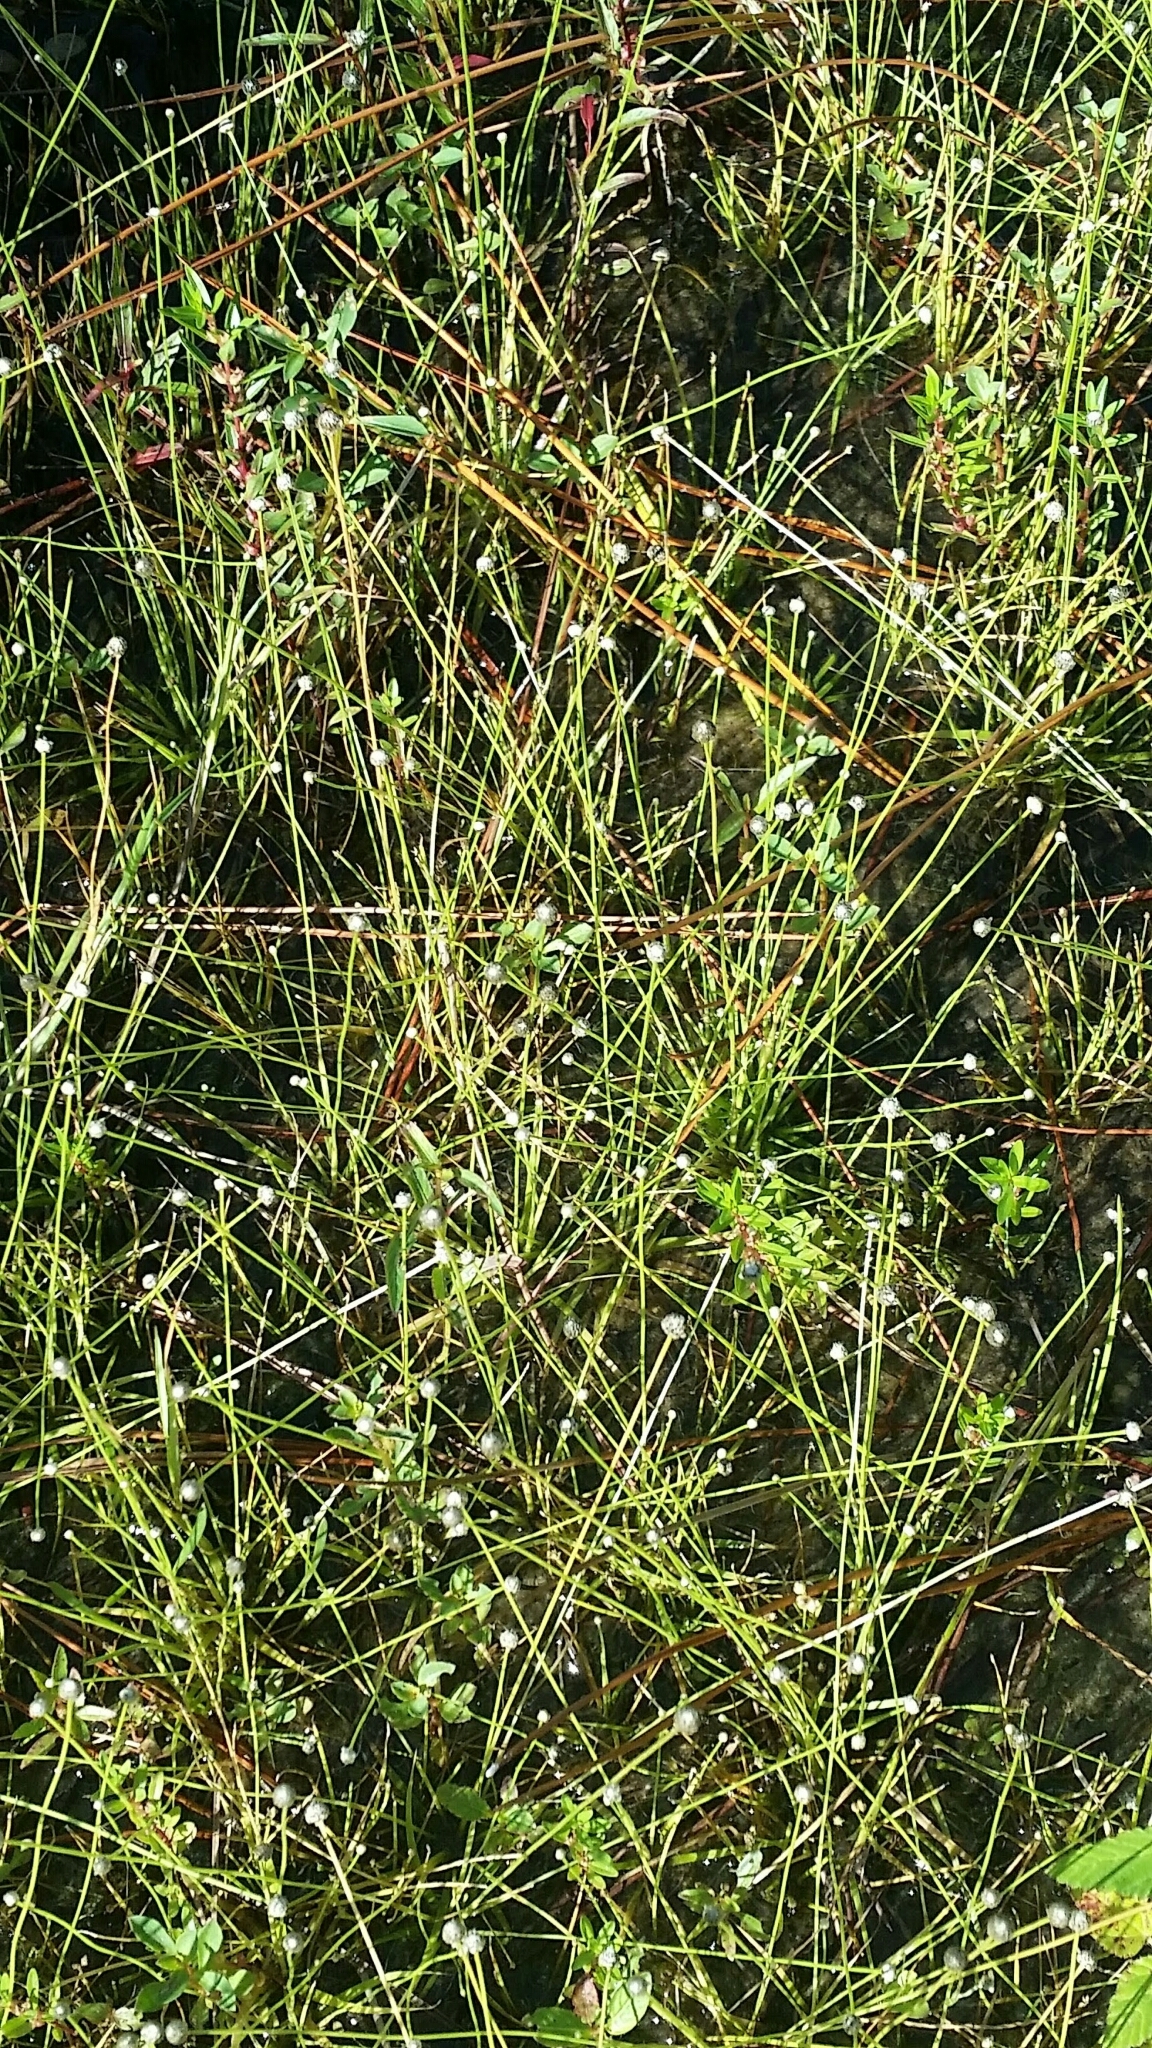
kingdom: Plantae
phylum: Tracheophyta
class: Liliopsida
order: Poales
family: Eriocaulaceae
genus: Eriocaulon
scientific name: Eriocaulon ravenelii
